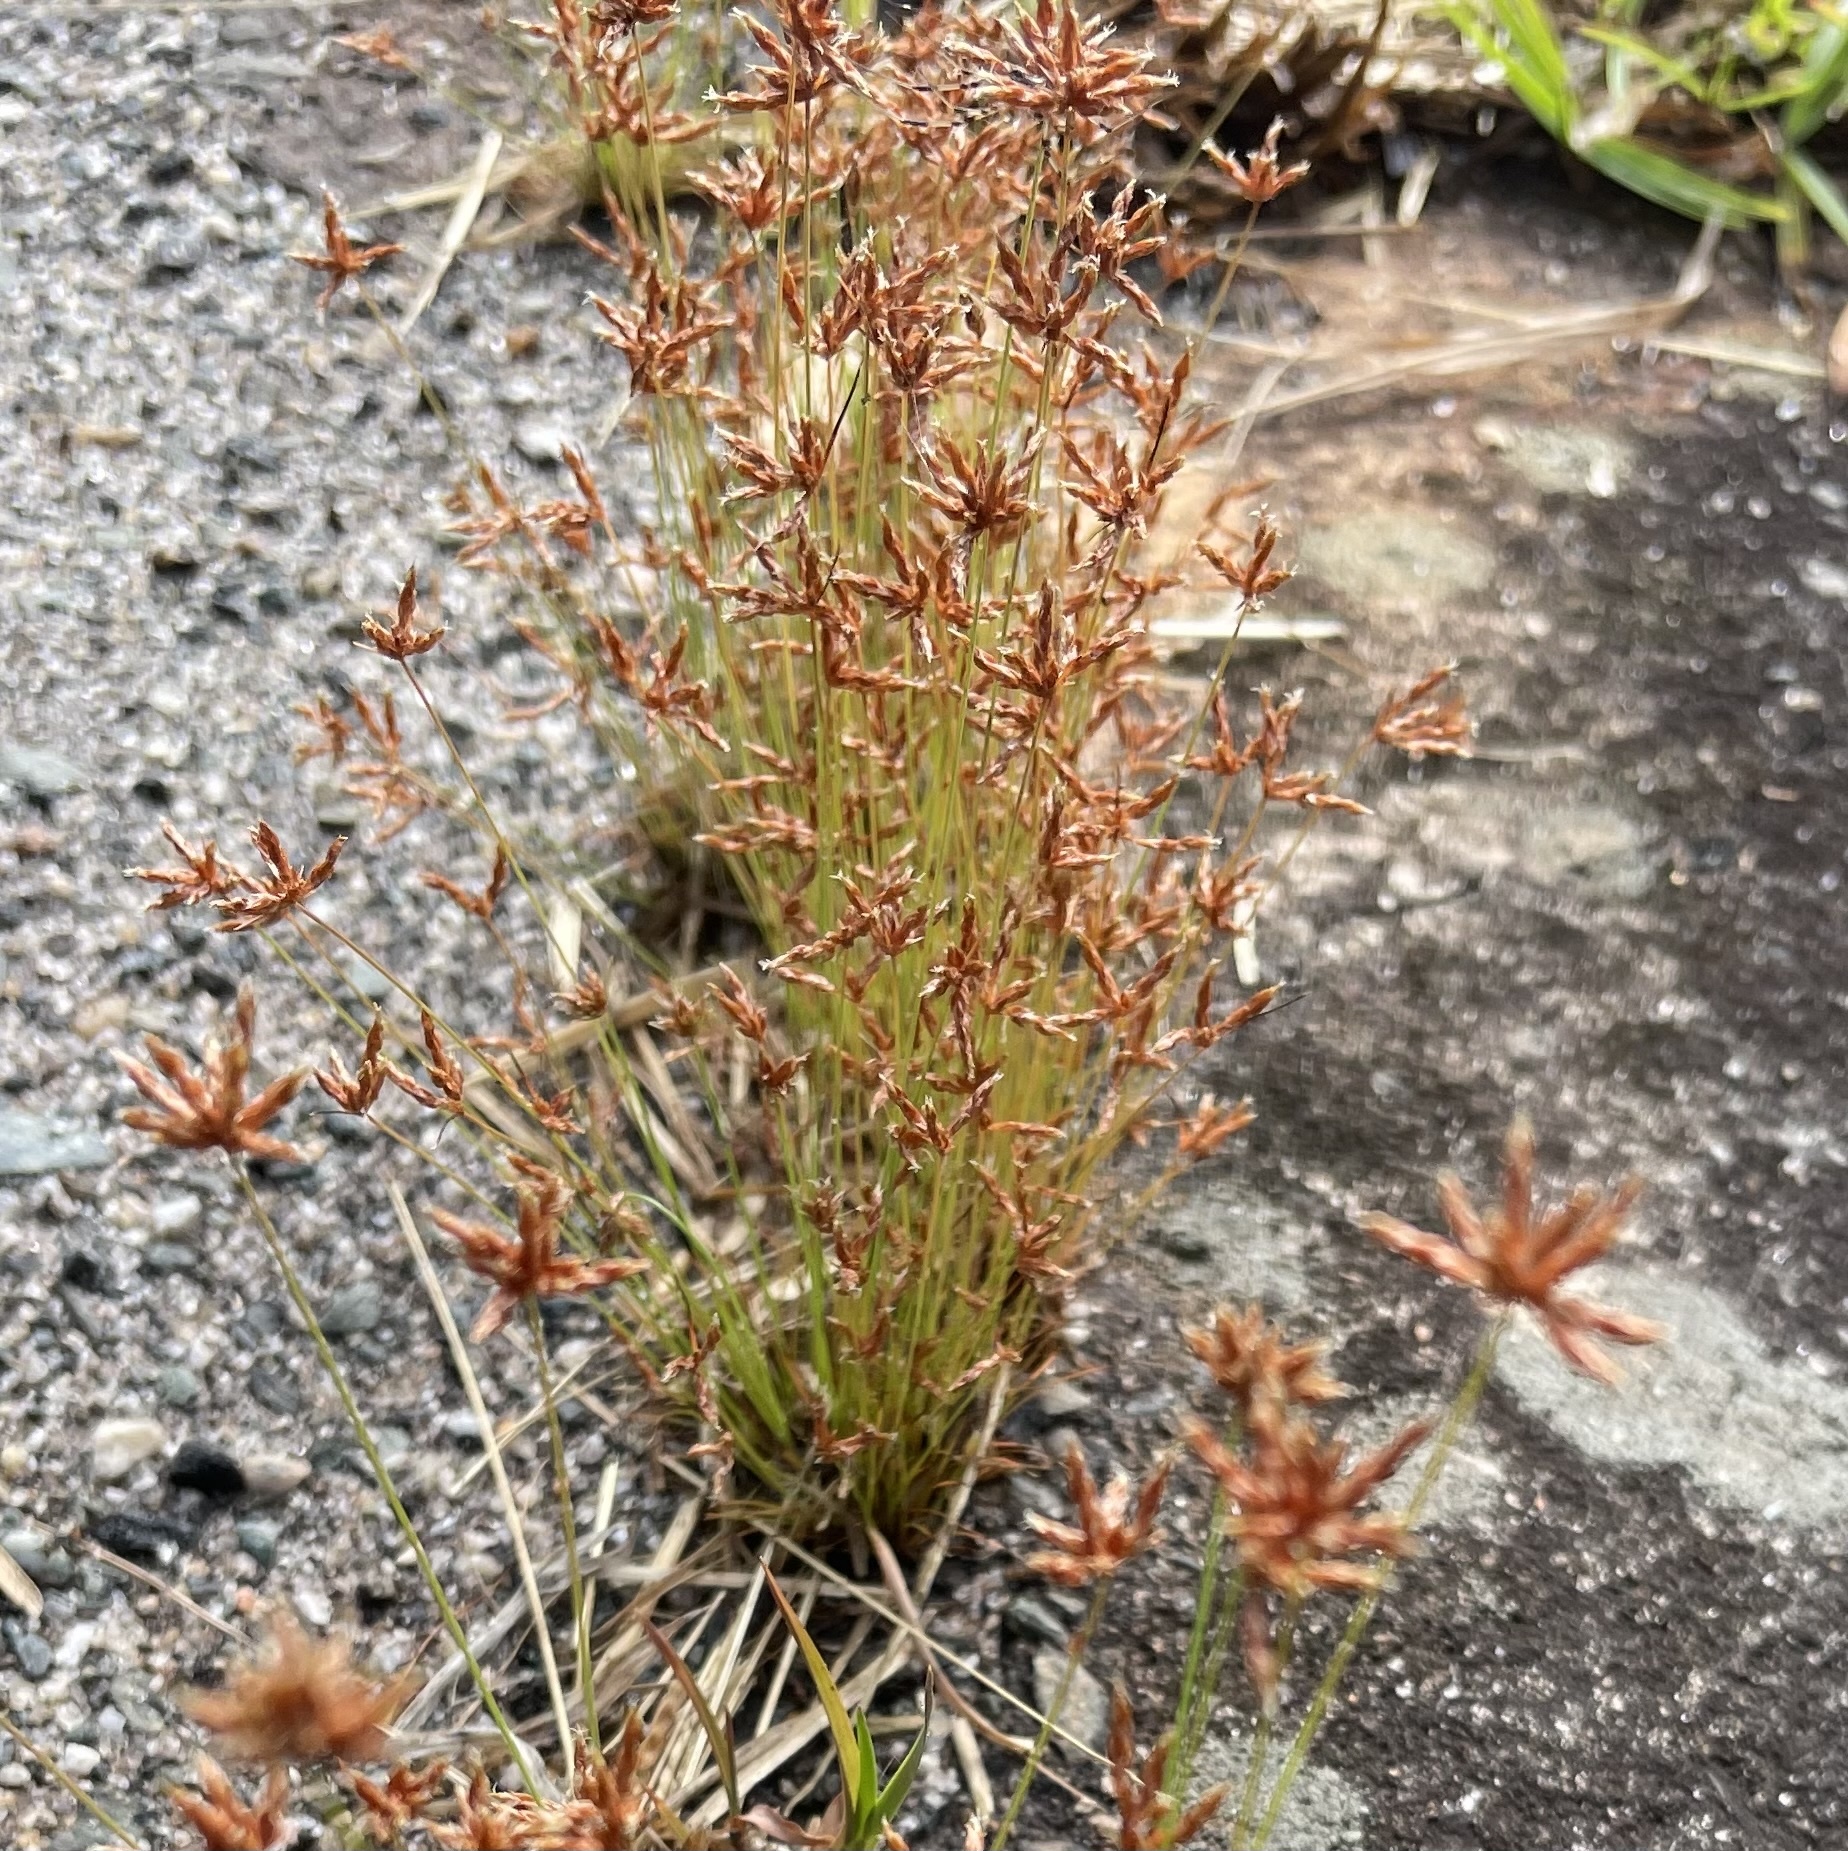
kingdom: Plantae
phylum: Tracheophyta
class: Liliopsida
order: Poales
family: Cyperaceae
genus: Bulbostylis
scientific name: Bulbostylis barbata
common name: Watergrass
